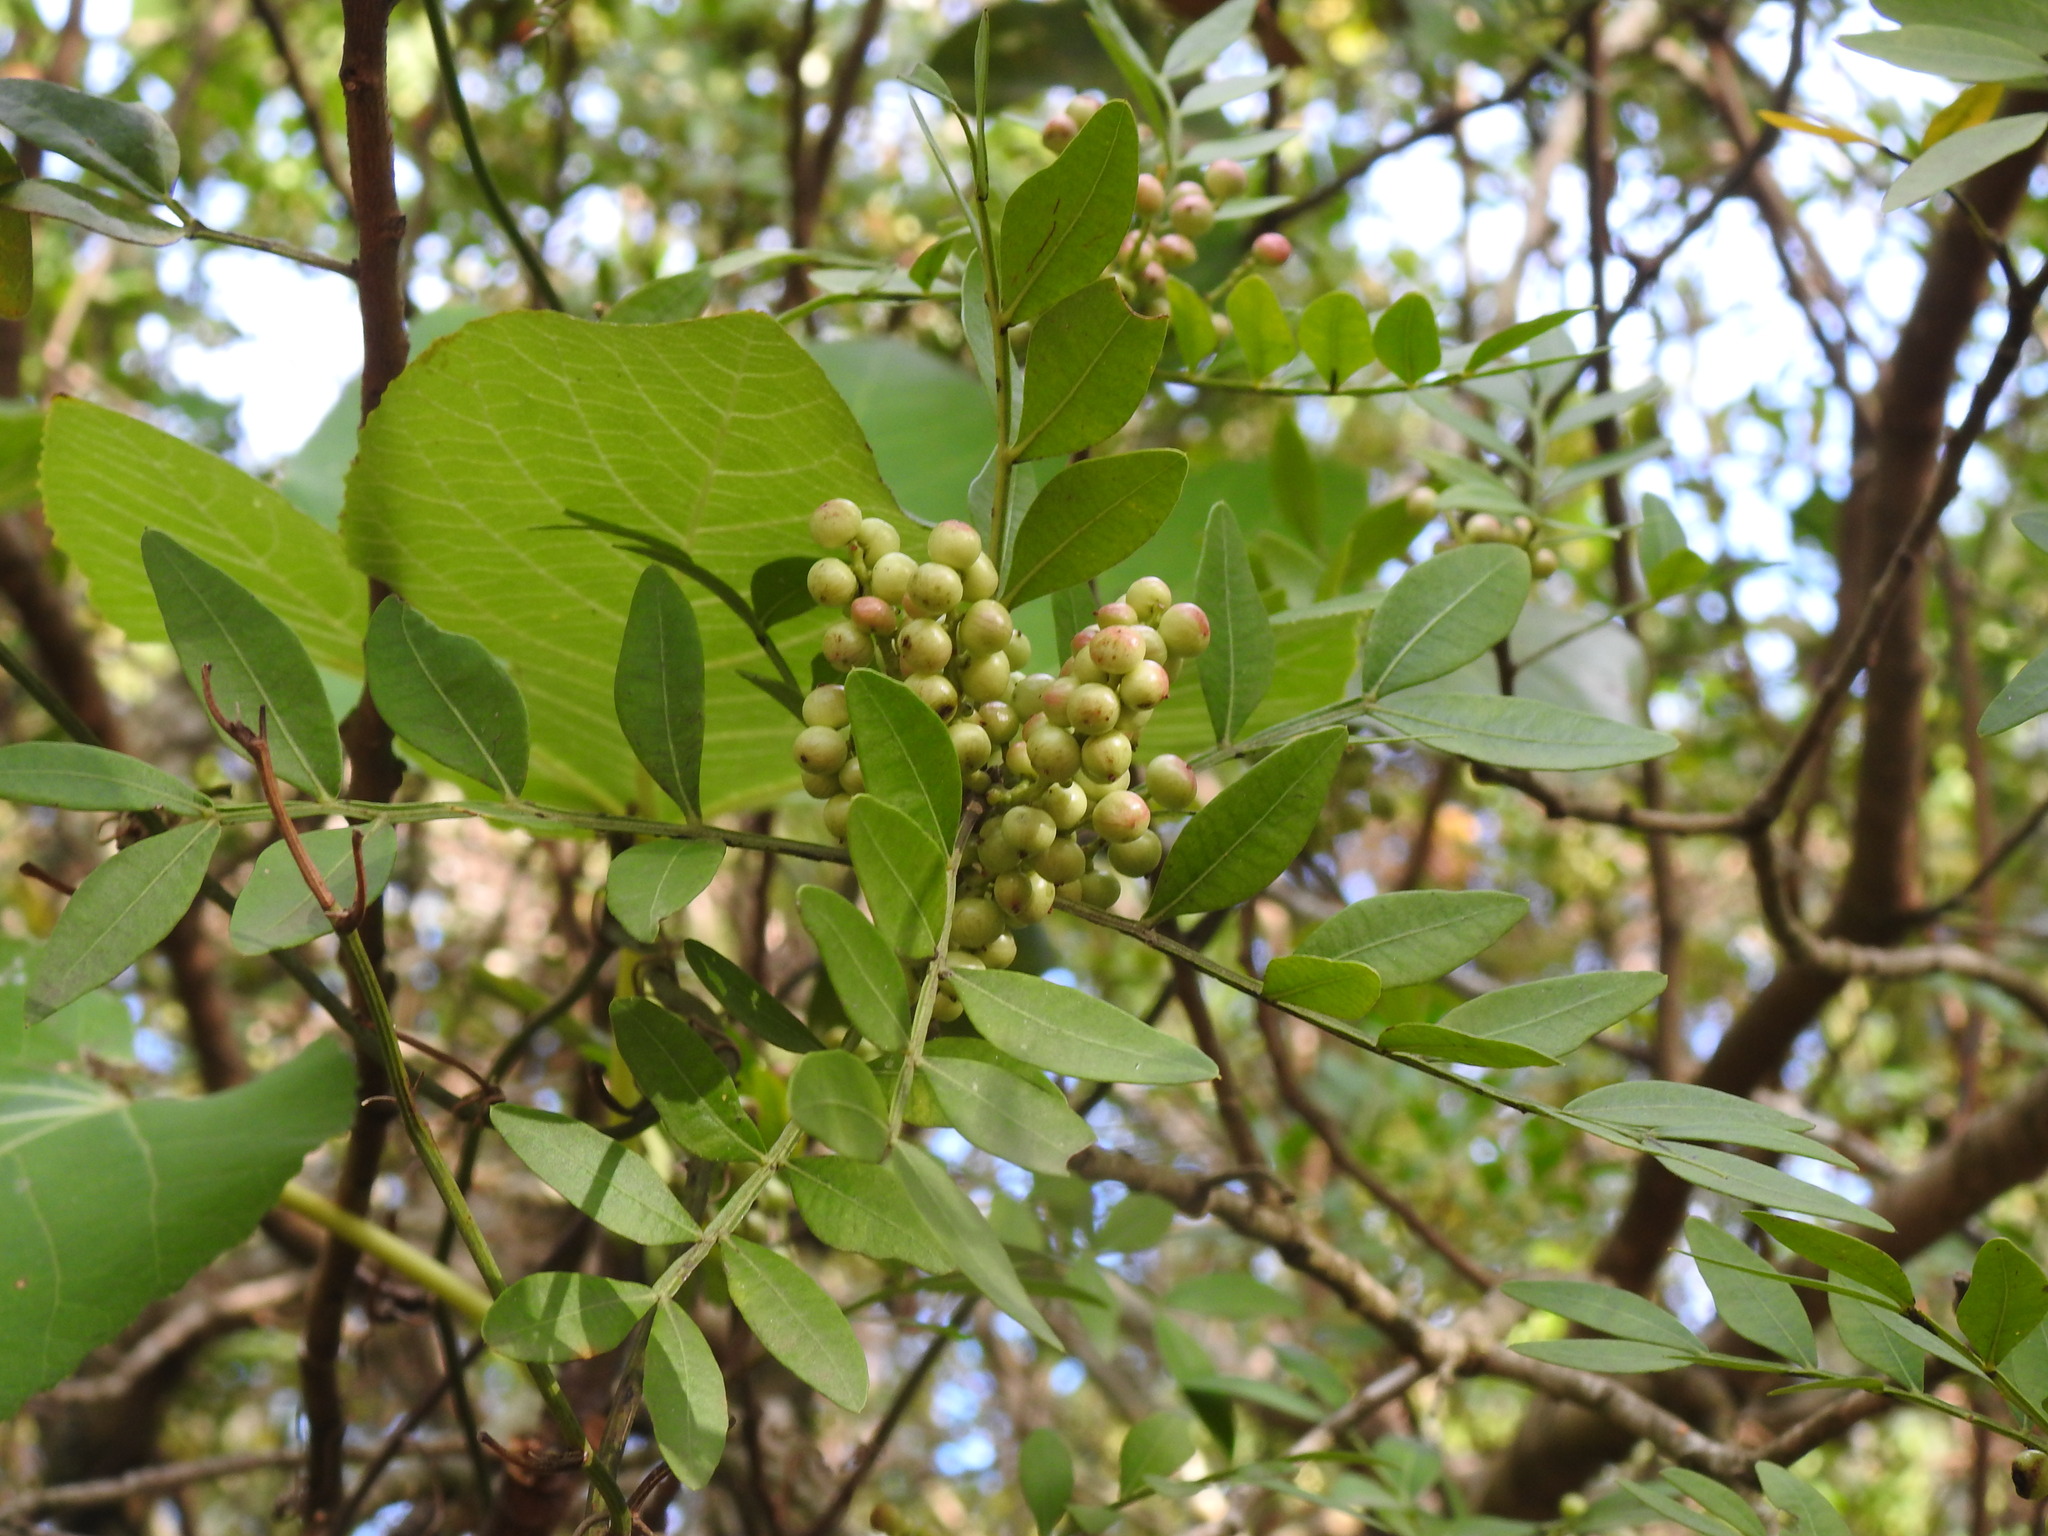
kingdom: Plantae
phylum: Tracheophyta
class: Magnoliopsida
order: Sapindales
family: Anacardiaceae
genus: Pistacia
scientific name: Pistacia lentiscus
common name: Lentisk
